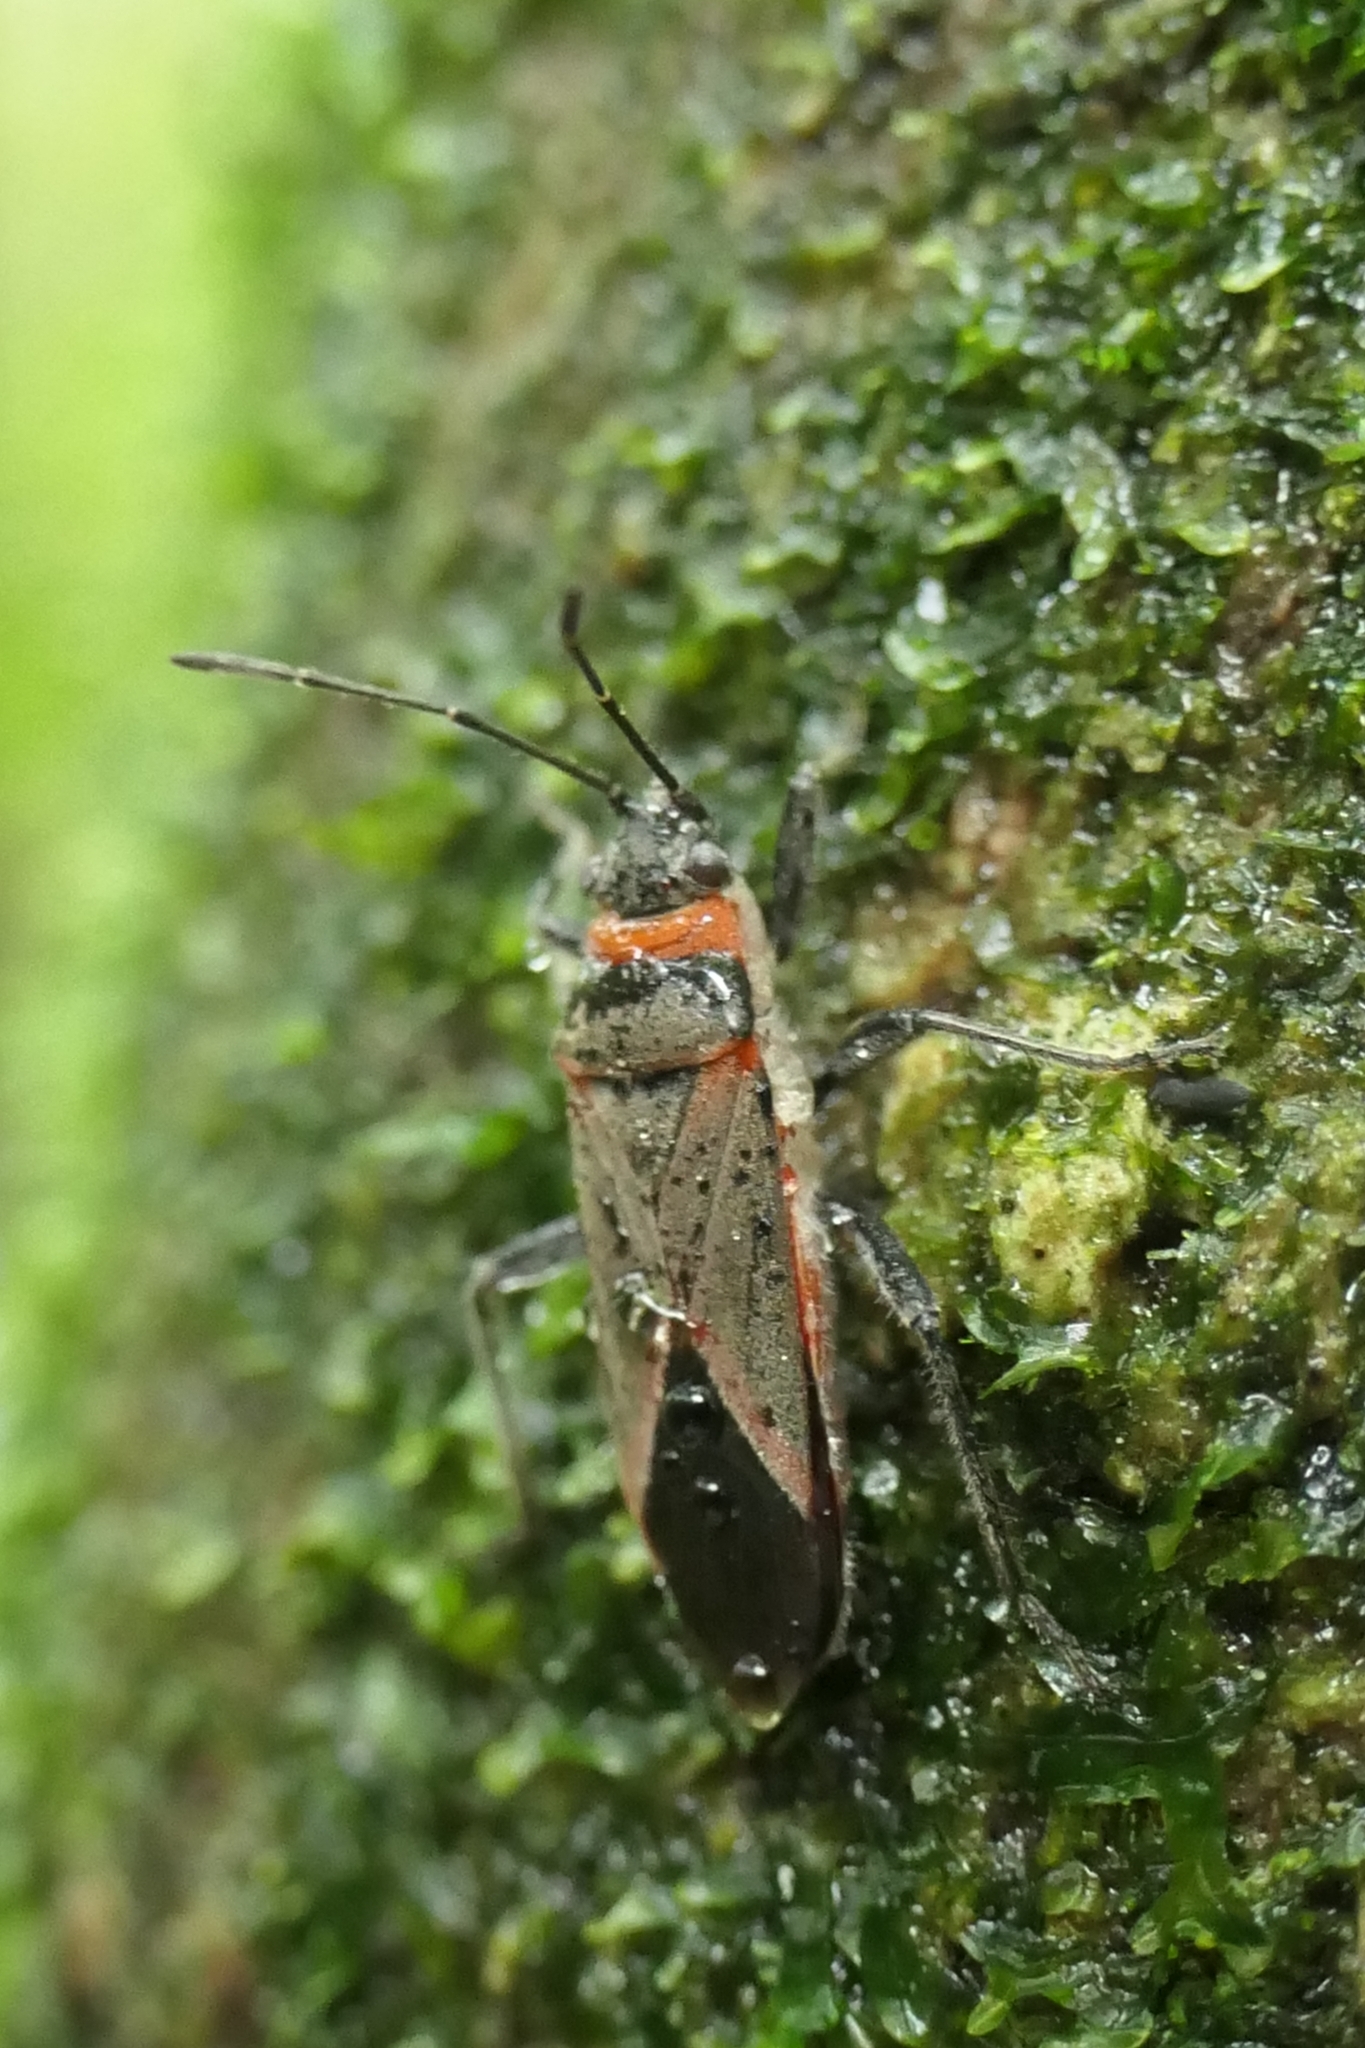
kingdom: Animalia
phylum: Arthropoda
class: Insecta
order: Hemiptera
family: Lygaeidae
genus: Arocatus
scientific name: Arocatus rusticus
